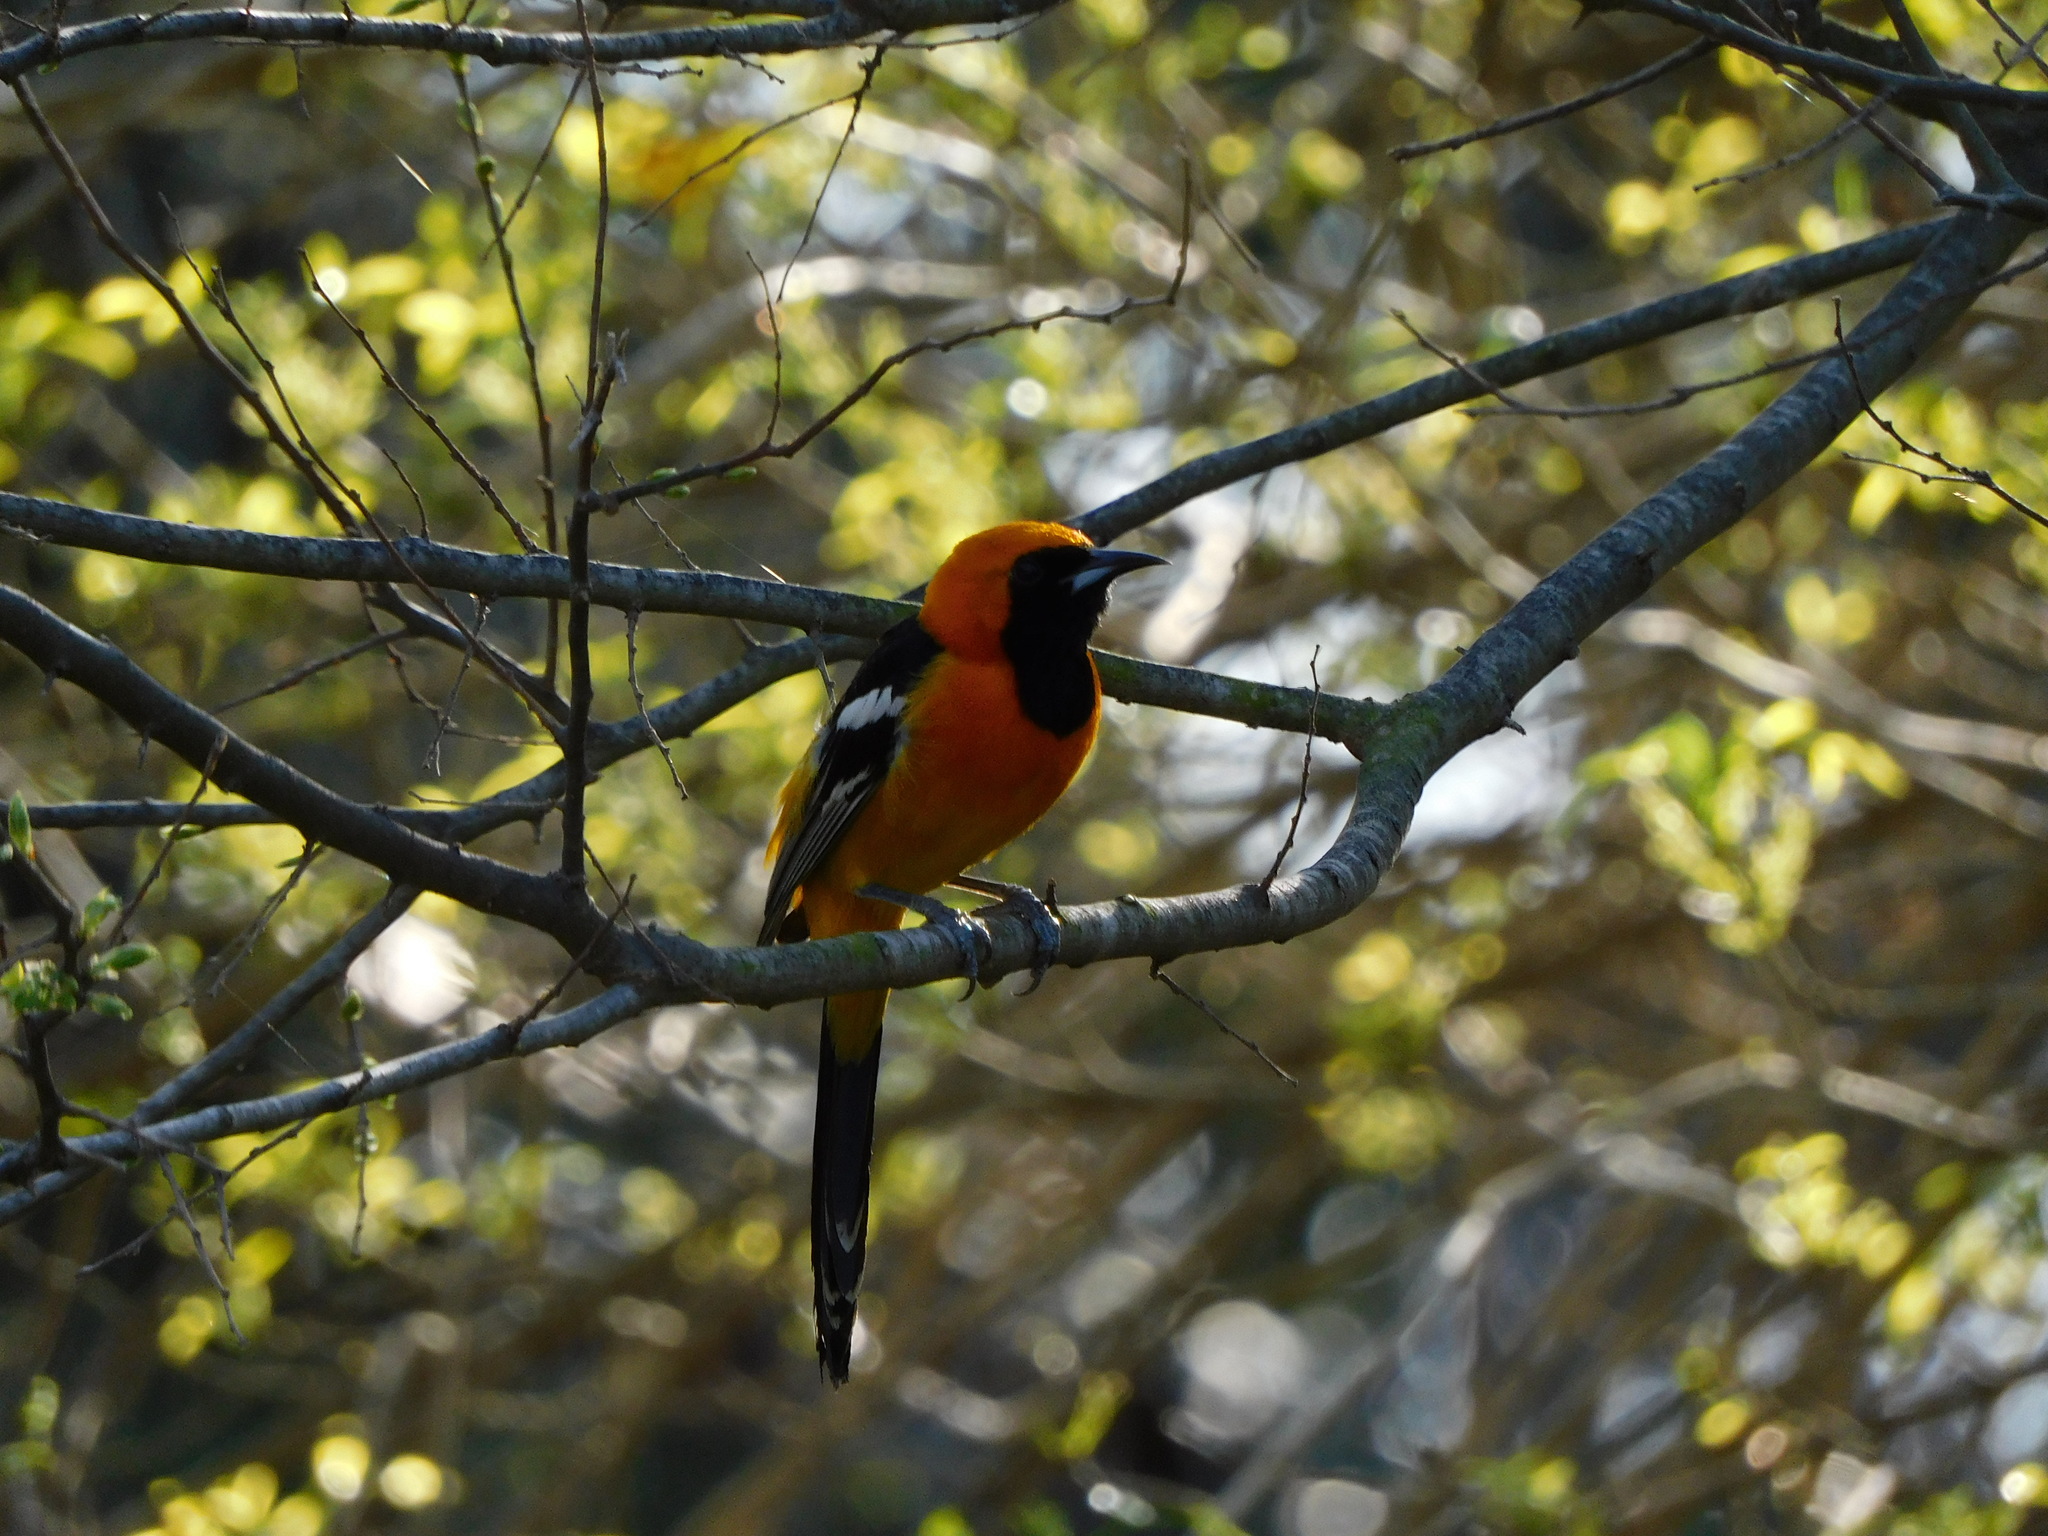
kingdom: Animalia
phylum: Chordata
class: Aves
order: Passeriformes
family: Icteridae
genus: Icterus
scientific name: Icterus cucullatus
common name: Hooded oriole
